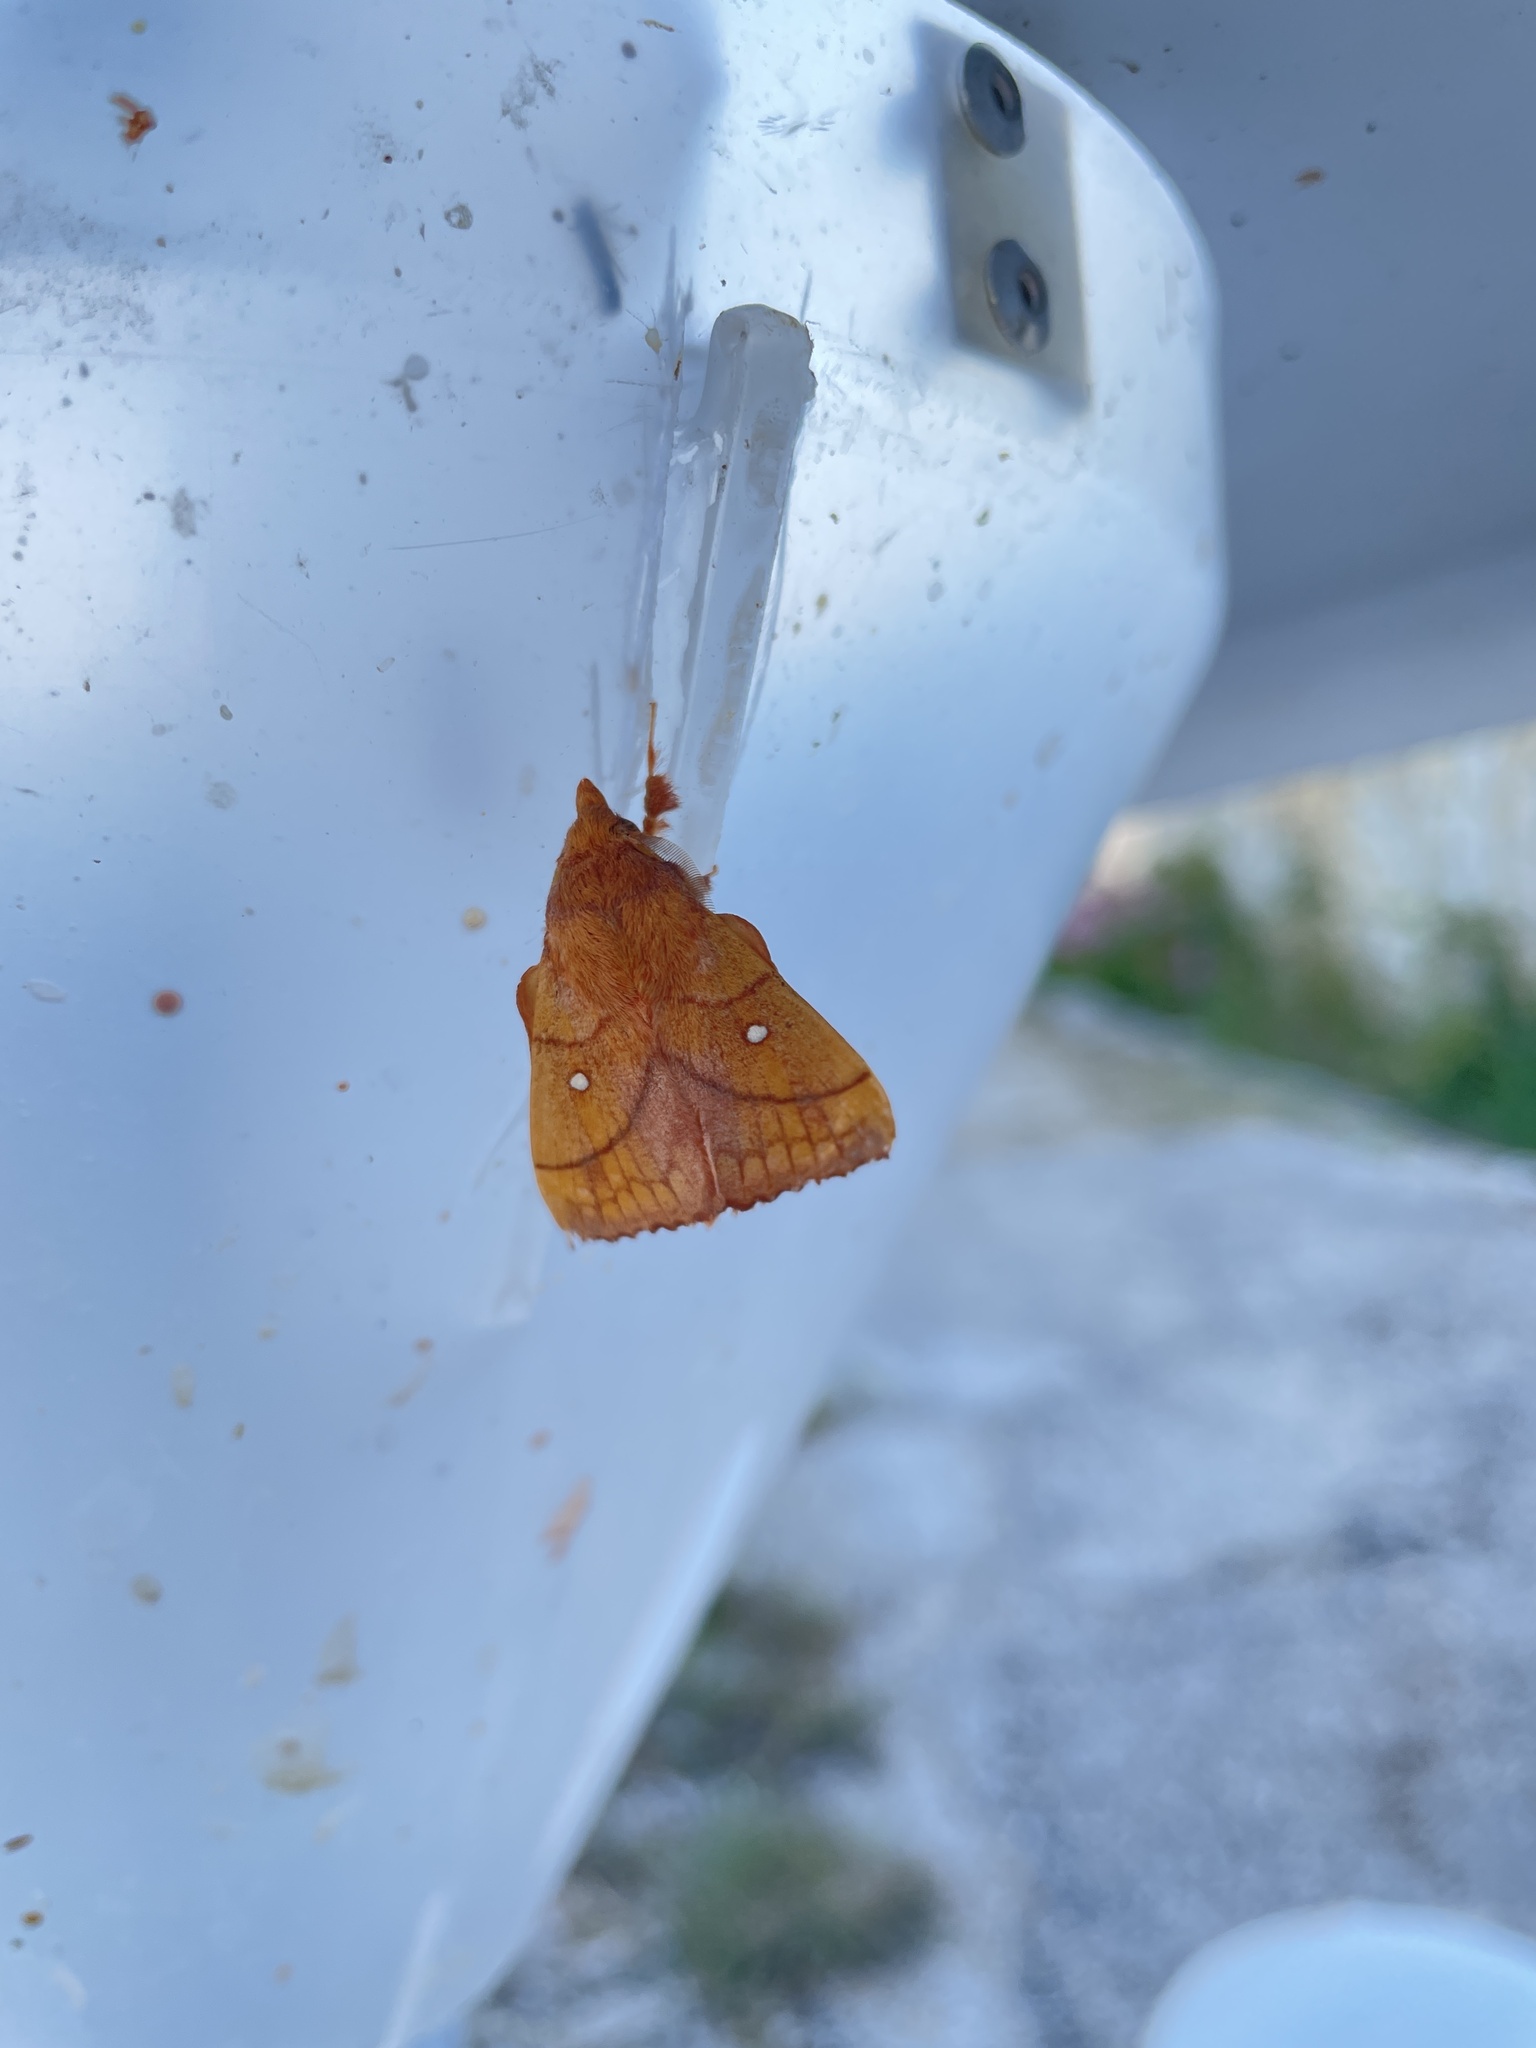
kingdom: Animalia
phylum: Arthropoda
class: Insecta
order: Lepidoptera
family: Lasiocampidae
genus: Odonestis
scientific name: Odonestis pruni
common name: Plum lappet
